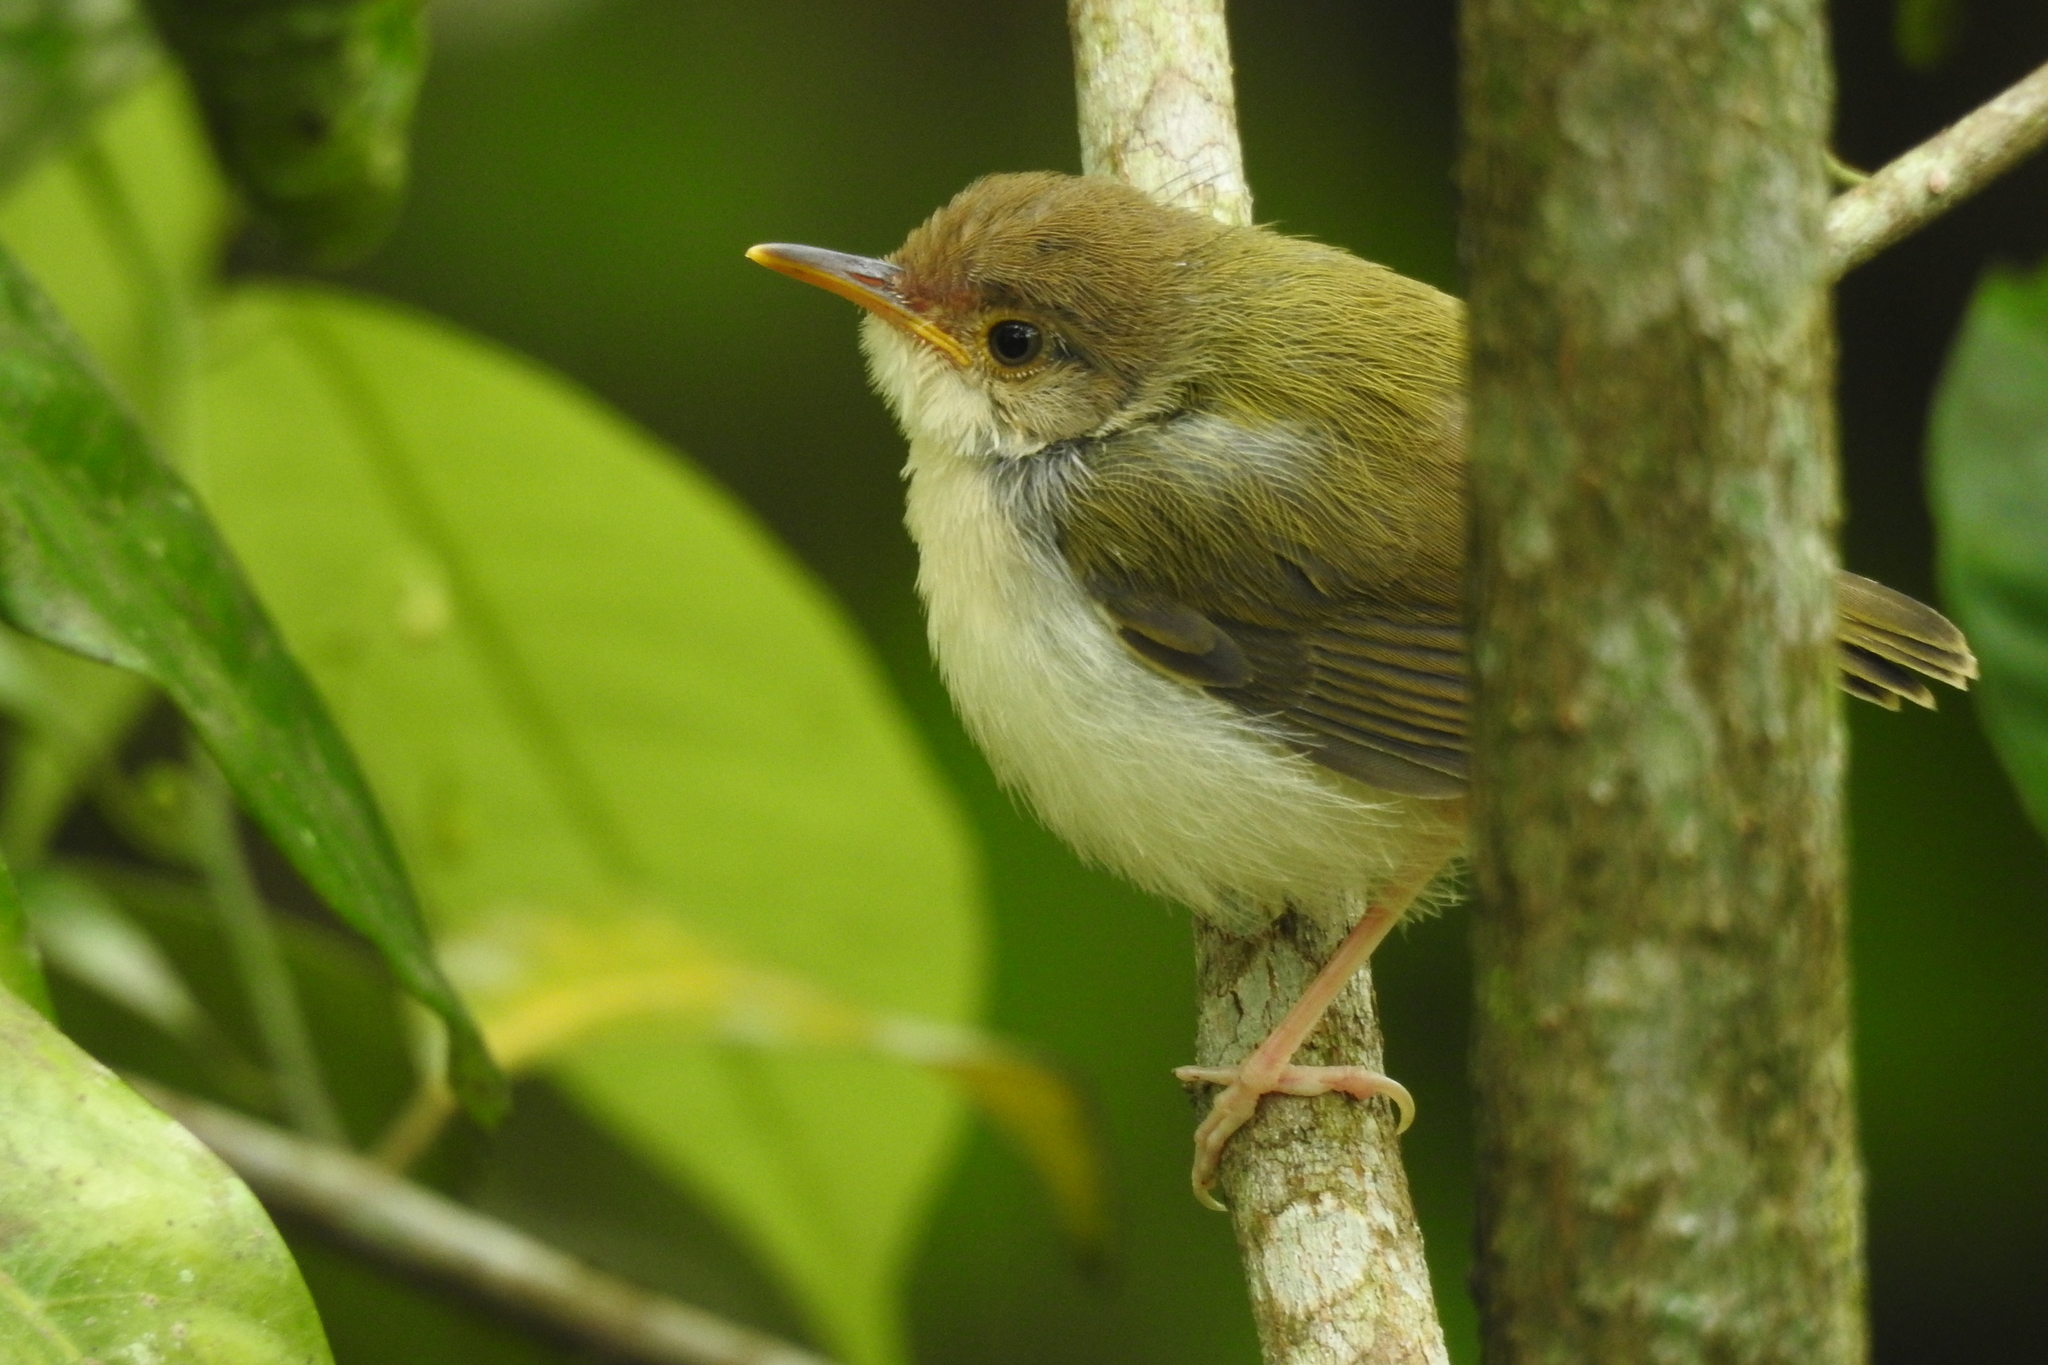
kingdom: Animalia
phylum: Chordata
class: Aves
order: Passeriformes
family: Cisticolidae
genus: Orthotomus
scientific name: Orthotomus sutorius
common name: Common tailorbird
